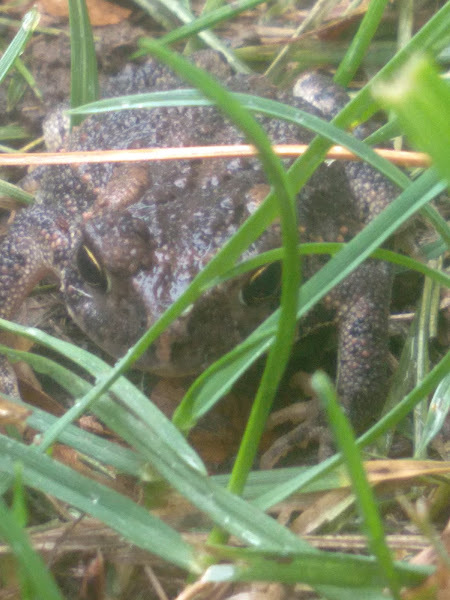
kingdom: Animalia
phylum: Chordata
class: Amphibia
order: Anura
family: Bufonidae
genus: Anaxyrus
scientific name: Anaxyrus americanus
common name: American toad
